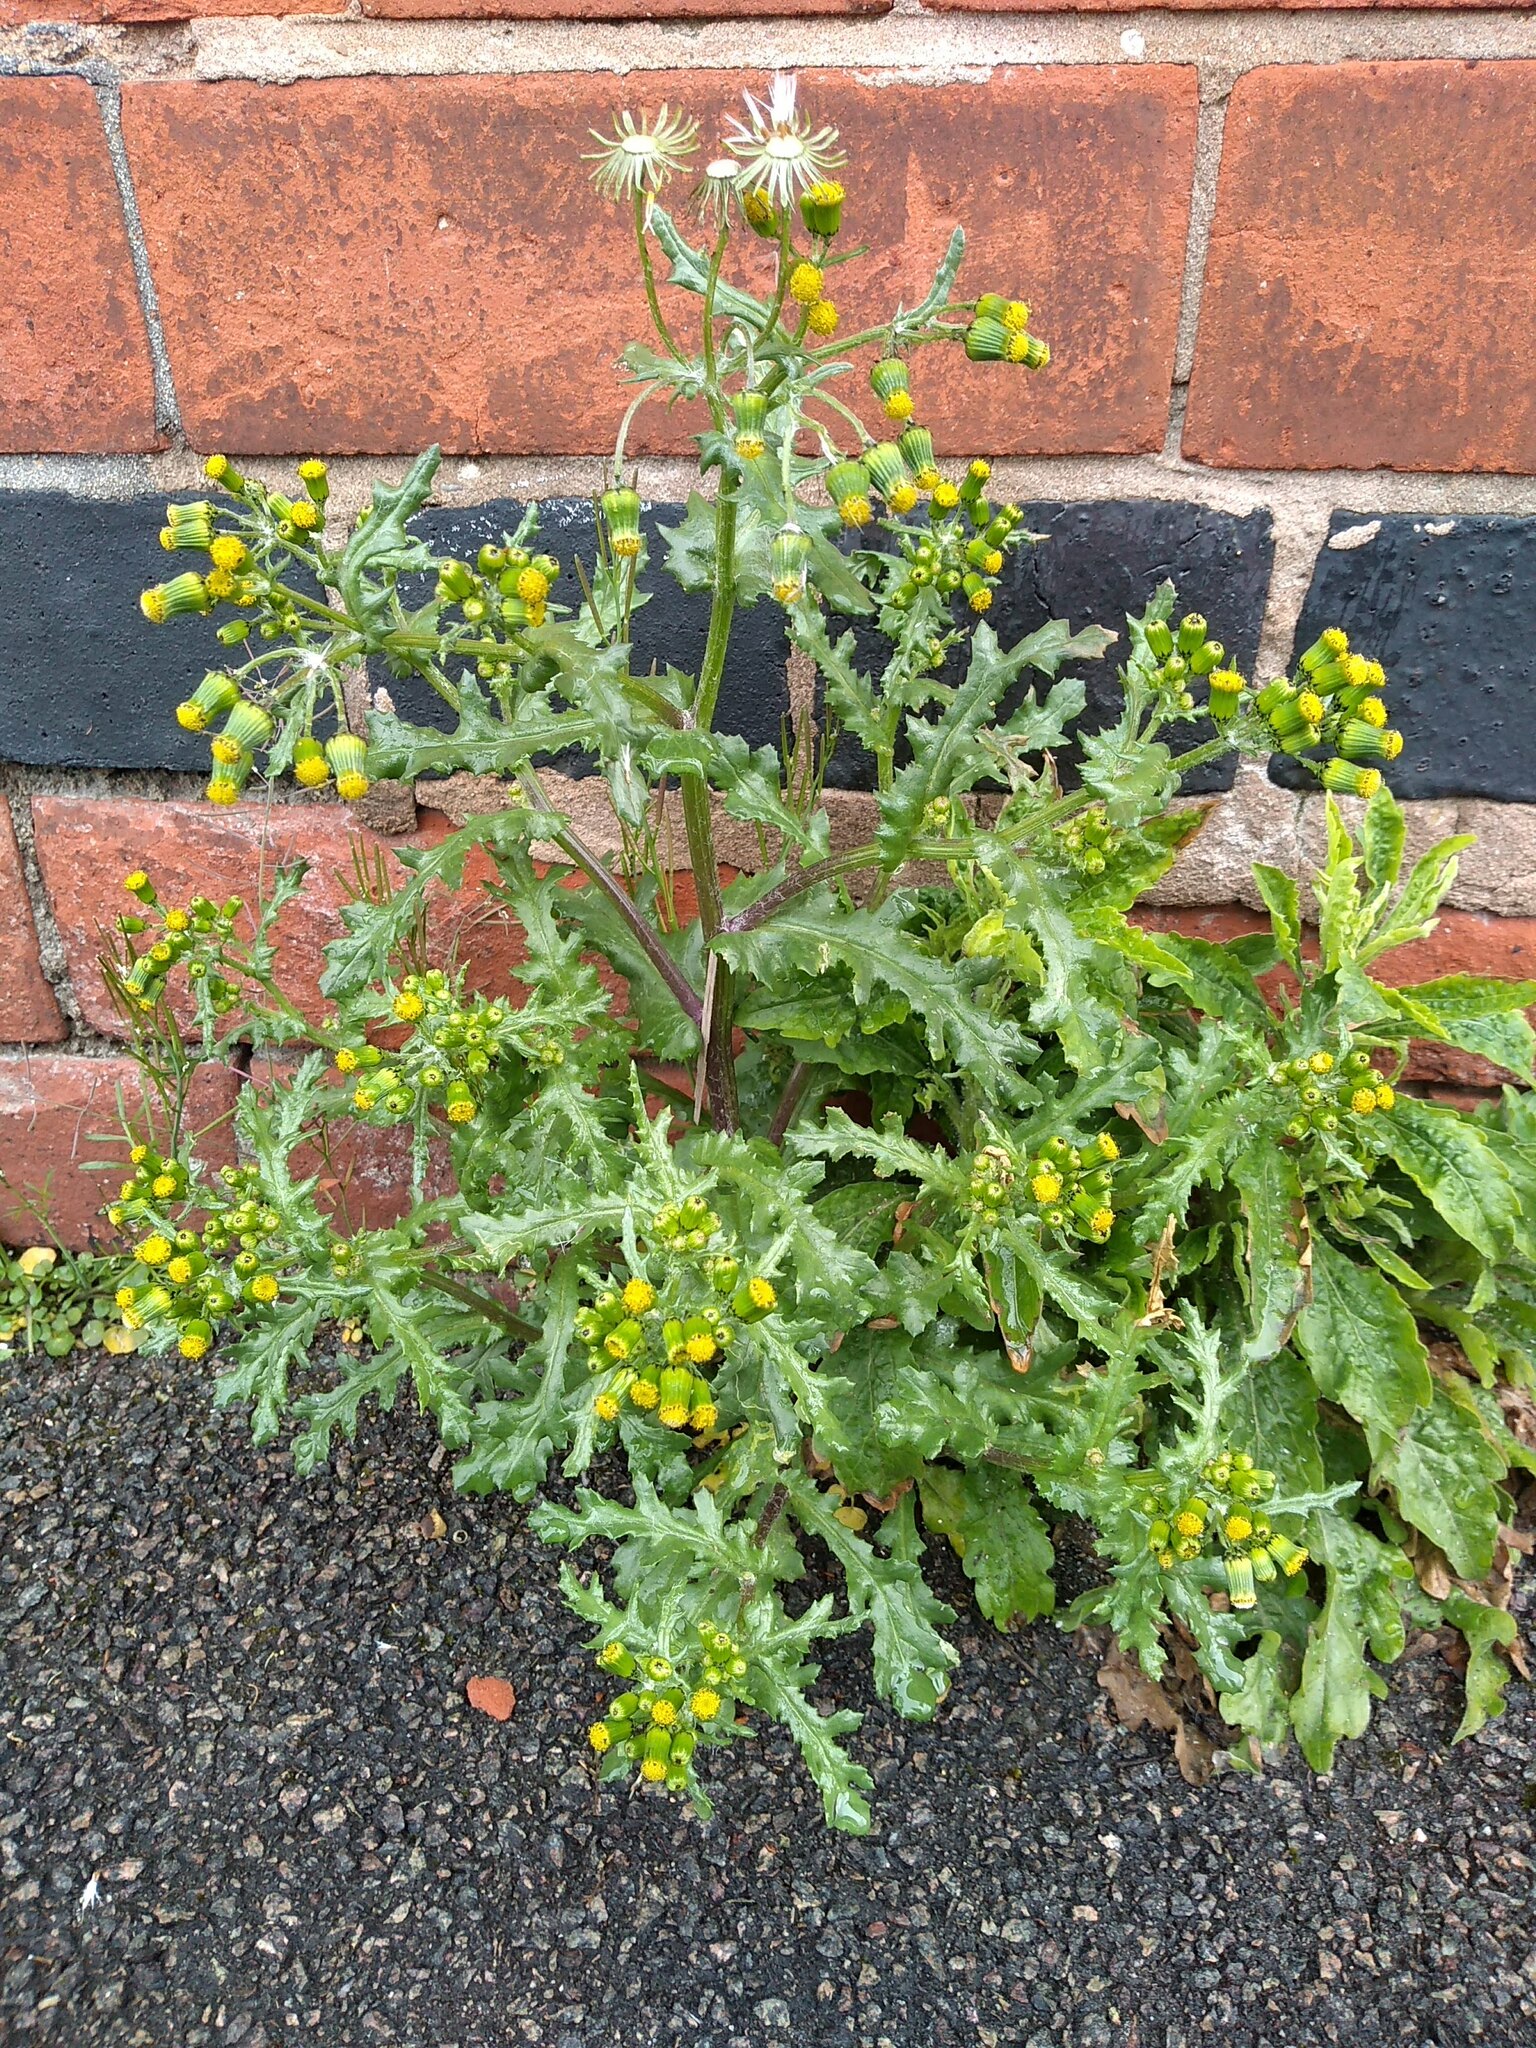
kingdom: Plantae
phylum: Tracheophyta
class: Magnoliopsida
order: Asterales
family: Asteraceae
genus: Senecio
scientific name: Senecio vulgaris
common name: Old-man-in-the-spring
